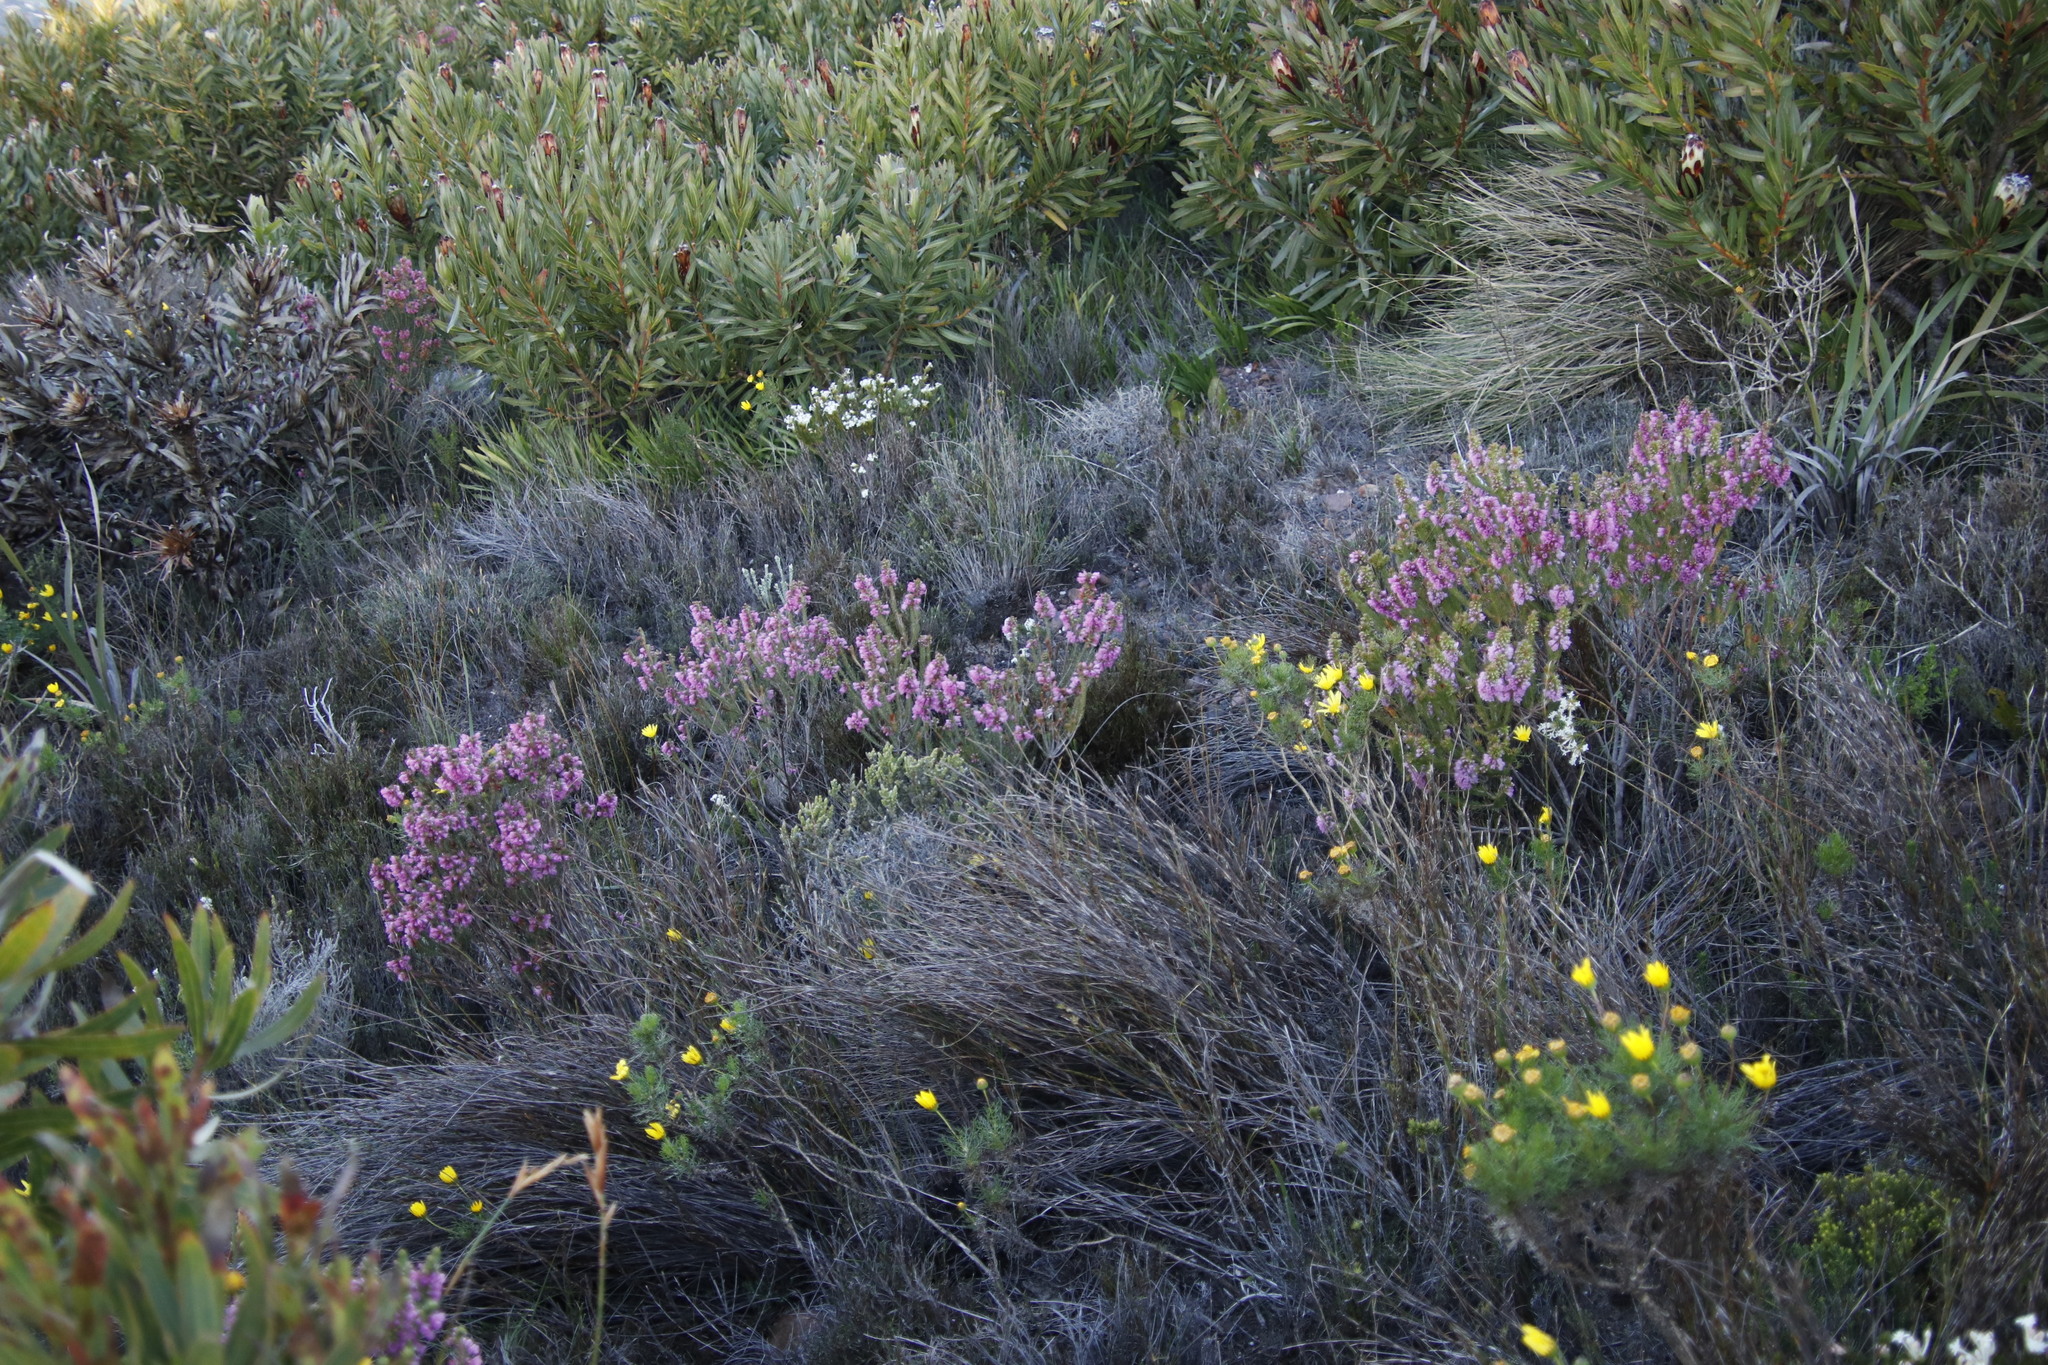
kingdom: Plantae
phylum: Tracheophyta
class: Magnoliopsida
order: Malvales
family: Thymelaeaceae
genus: Gnidia
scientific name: Gnidia pinifolia
